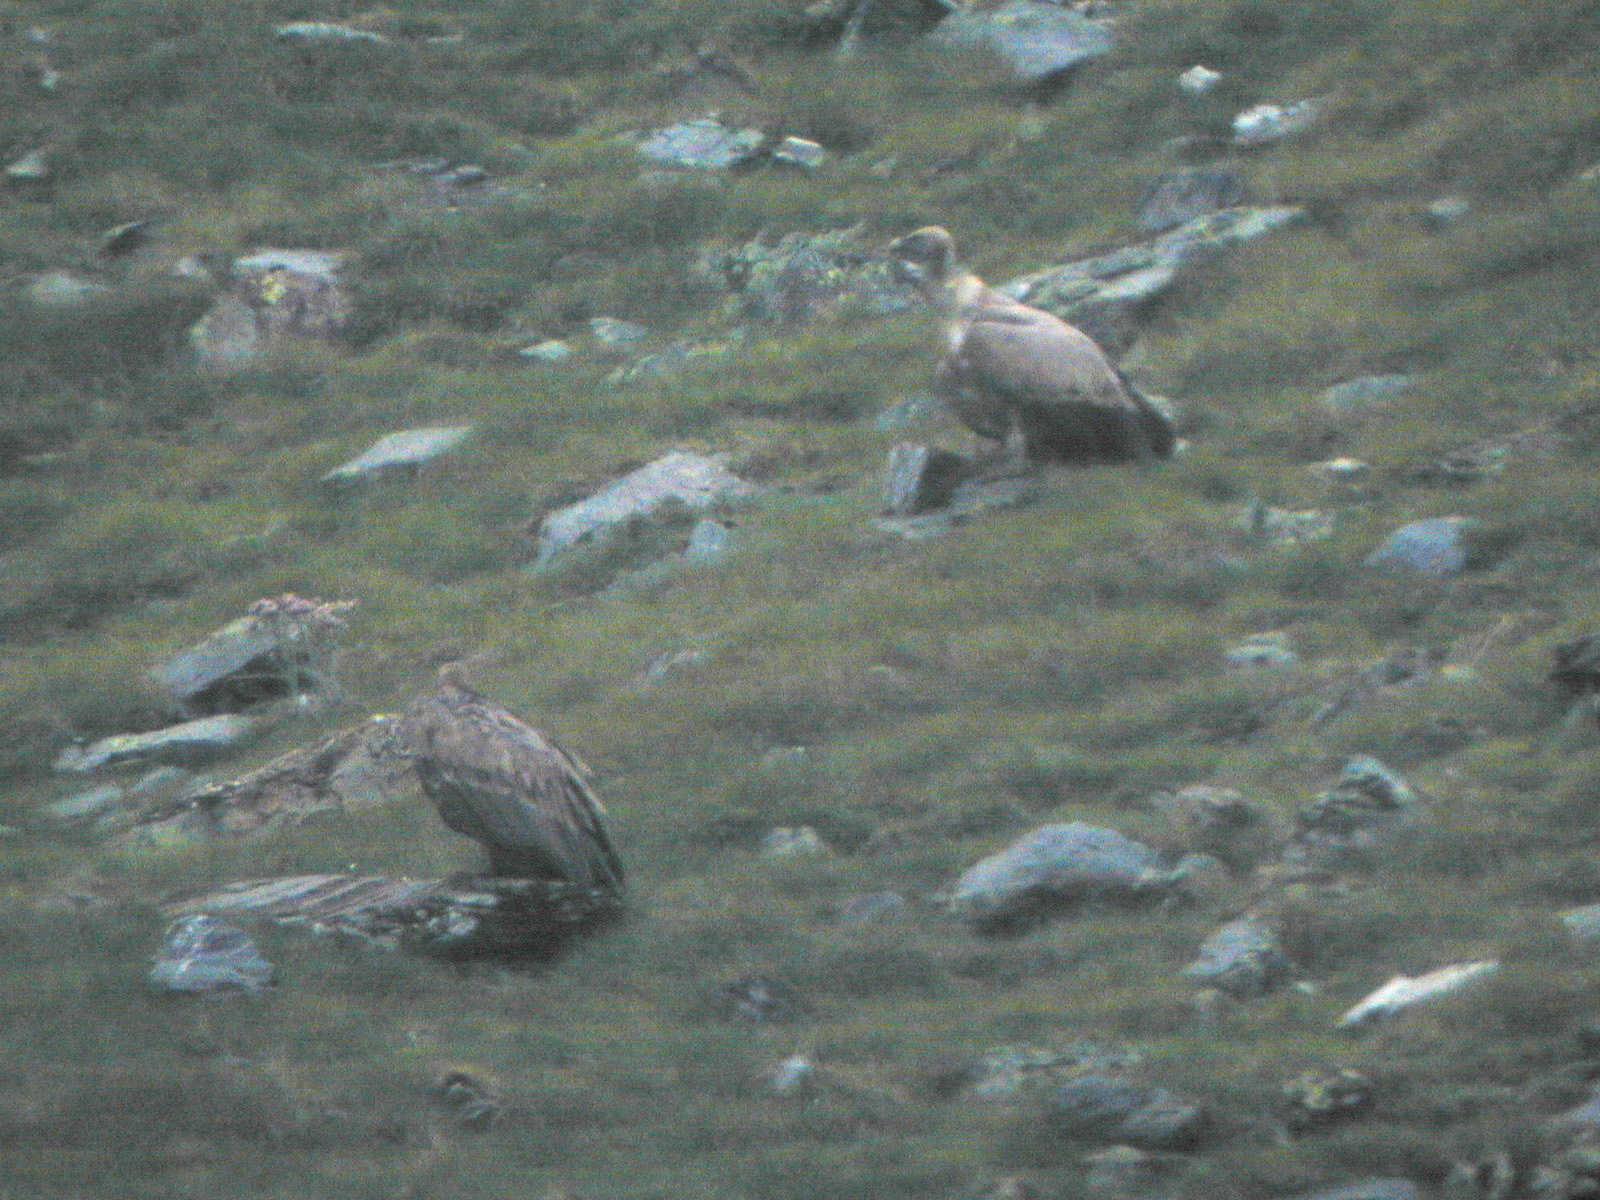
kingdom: Animalia
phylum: Chordata
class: Aves
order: Accipitriformes
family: Accipitridae
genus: Gyps
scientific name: Gyps fulvus
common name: Griffon vulture
